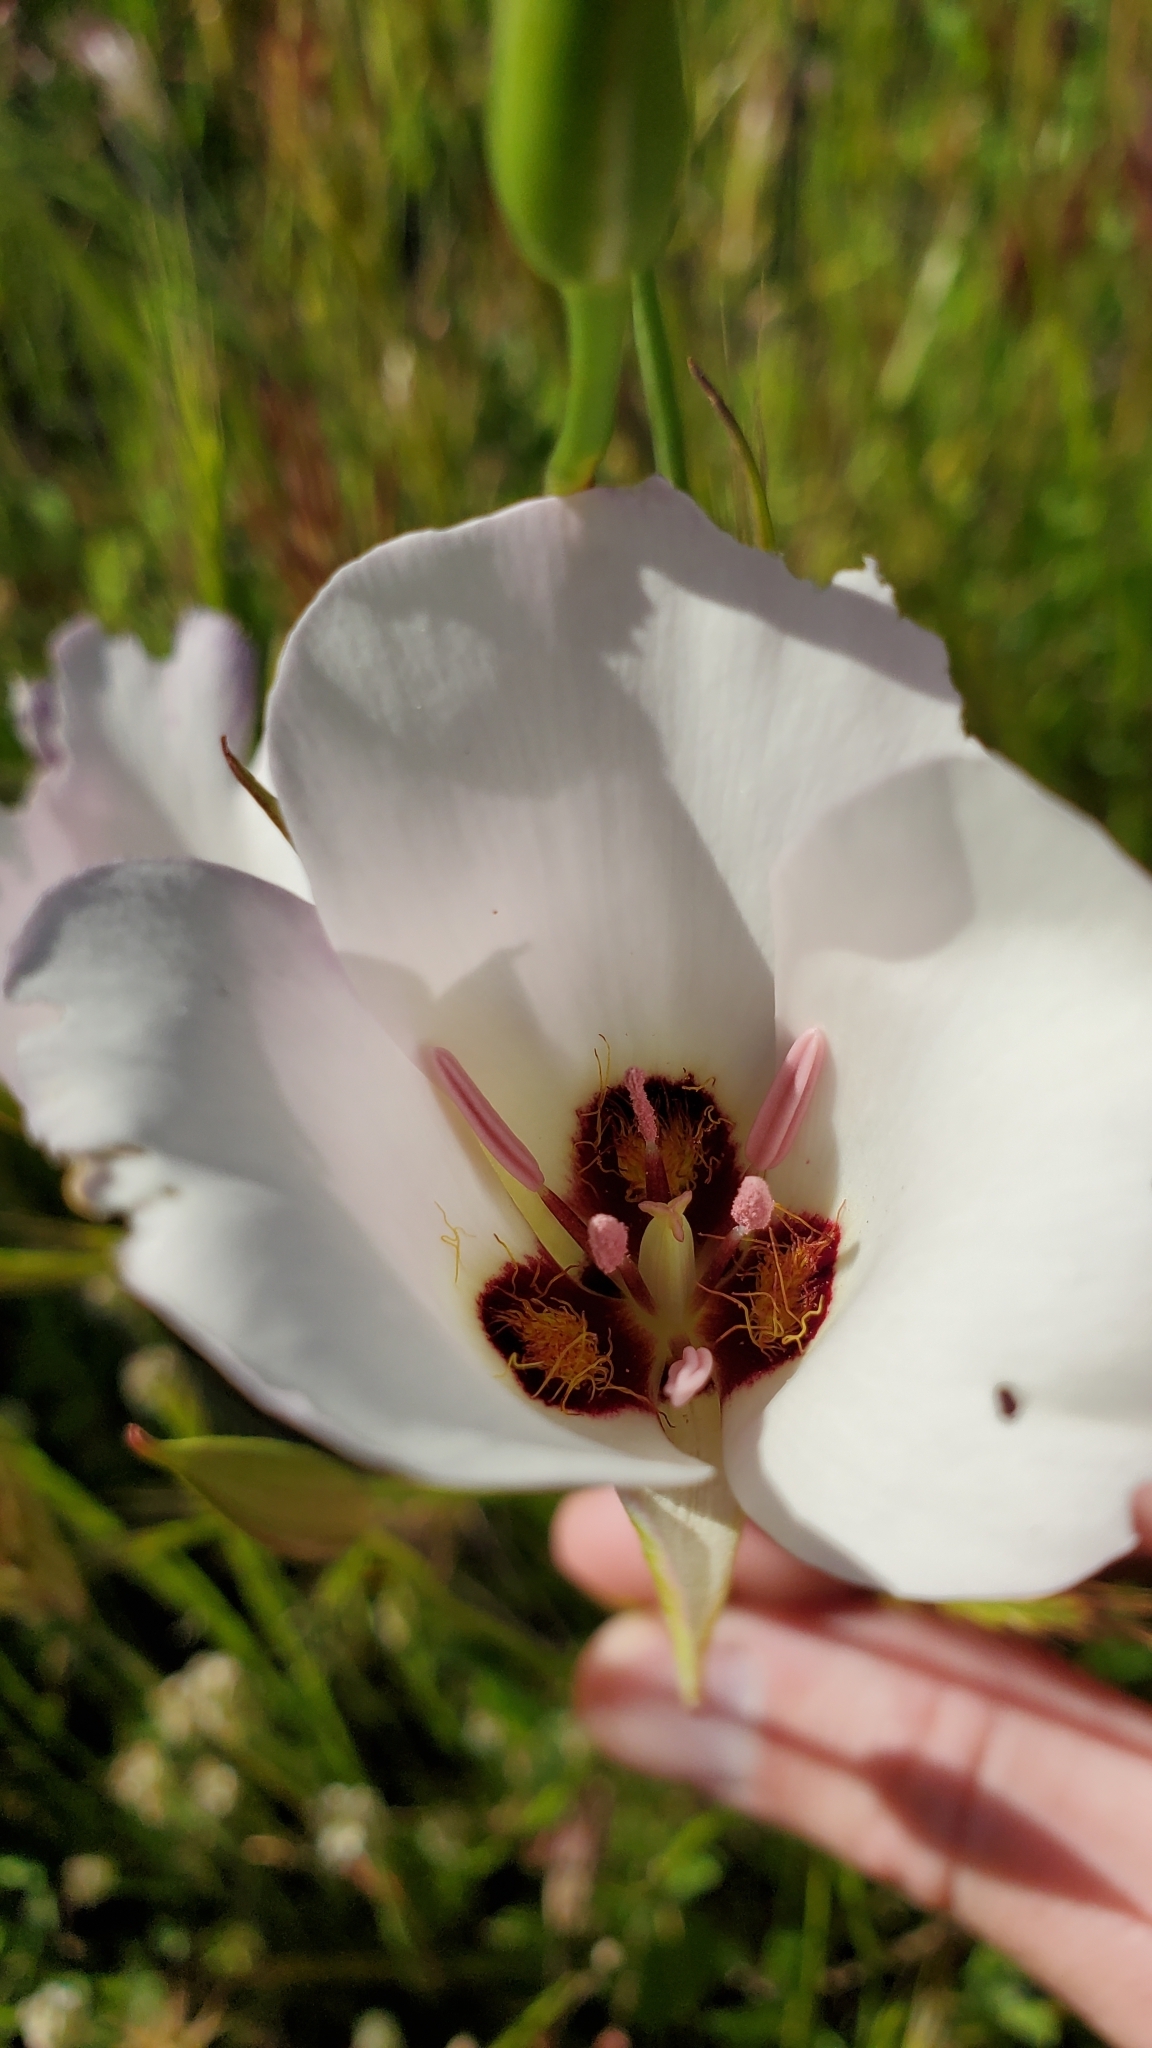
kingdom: Plantae
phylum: Tracheophyta
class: Liliopsida
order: Liliales
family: Liliaceae
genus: Calochortus
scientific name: Calochortus catalinae
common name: Catalina mariposa-lily
